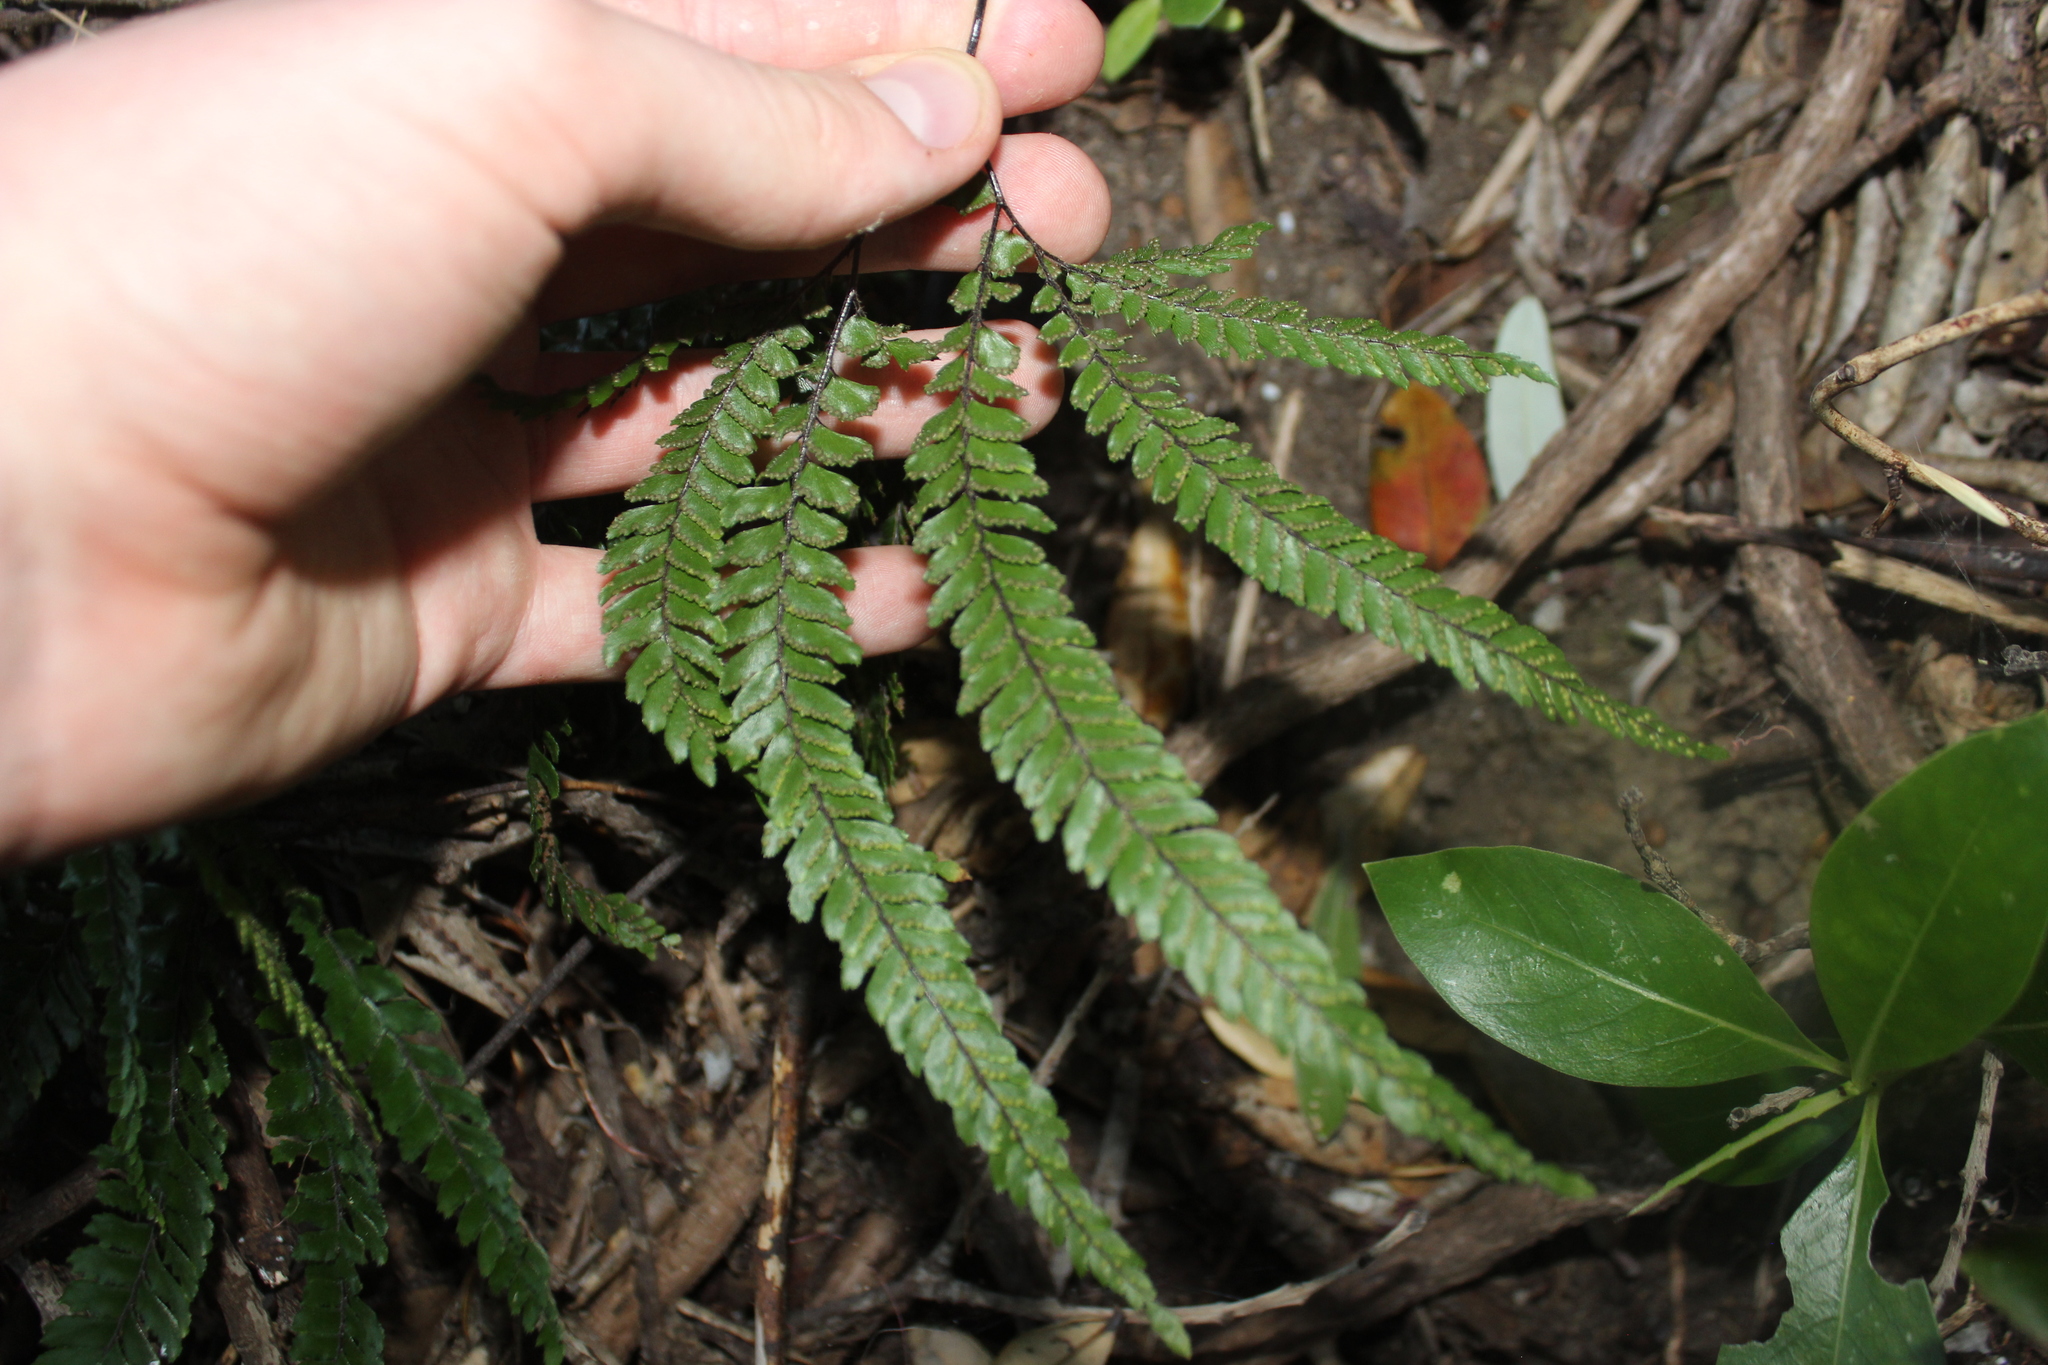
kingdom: Plantae
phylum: Tracheophyta
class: Polypodiopsida
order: Polypodiales
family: Pteridaceae
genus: Adiantum
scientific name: Adiantum hispidulum
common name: Rough maidenhair
